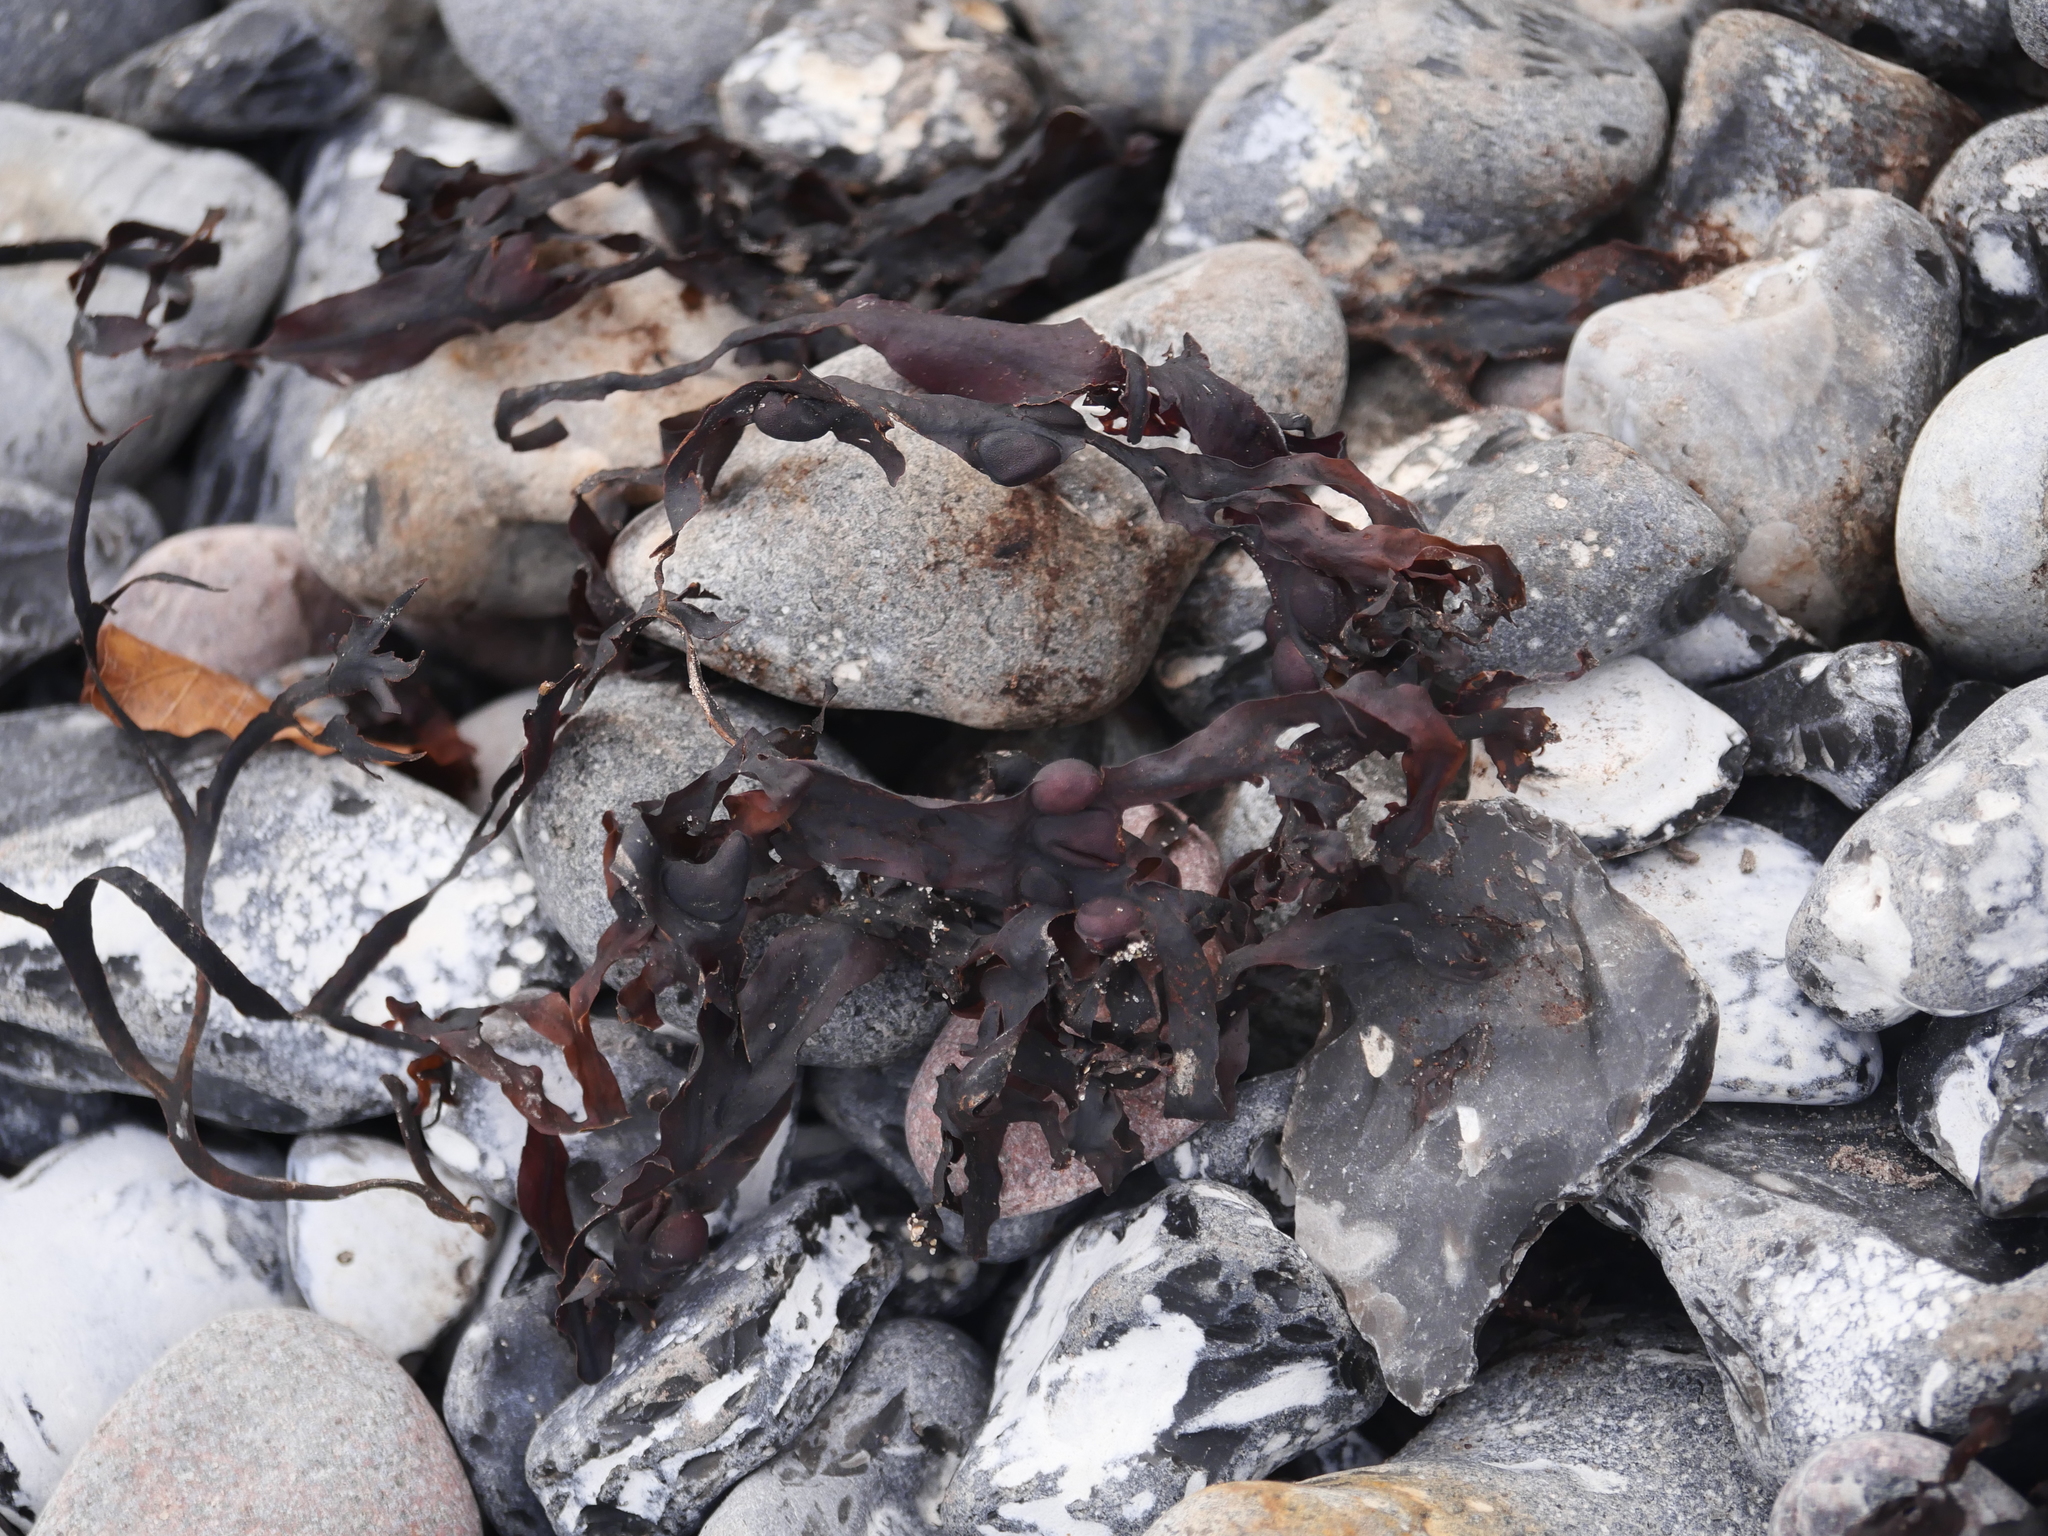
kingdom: Chromista
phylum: Ochrophyta
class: Phaeophyceae
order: Fucales
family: Fucaceae
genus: Fucus
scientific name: Fucus vesiculosus
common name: Bladder wrack
